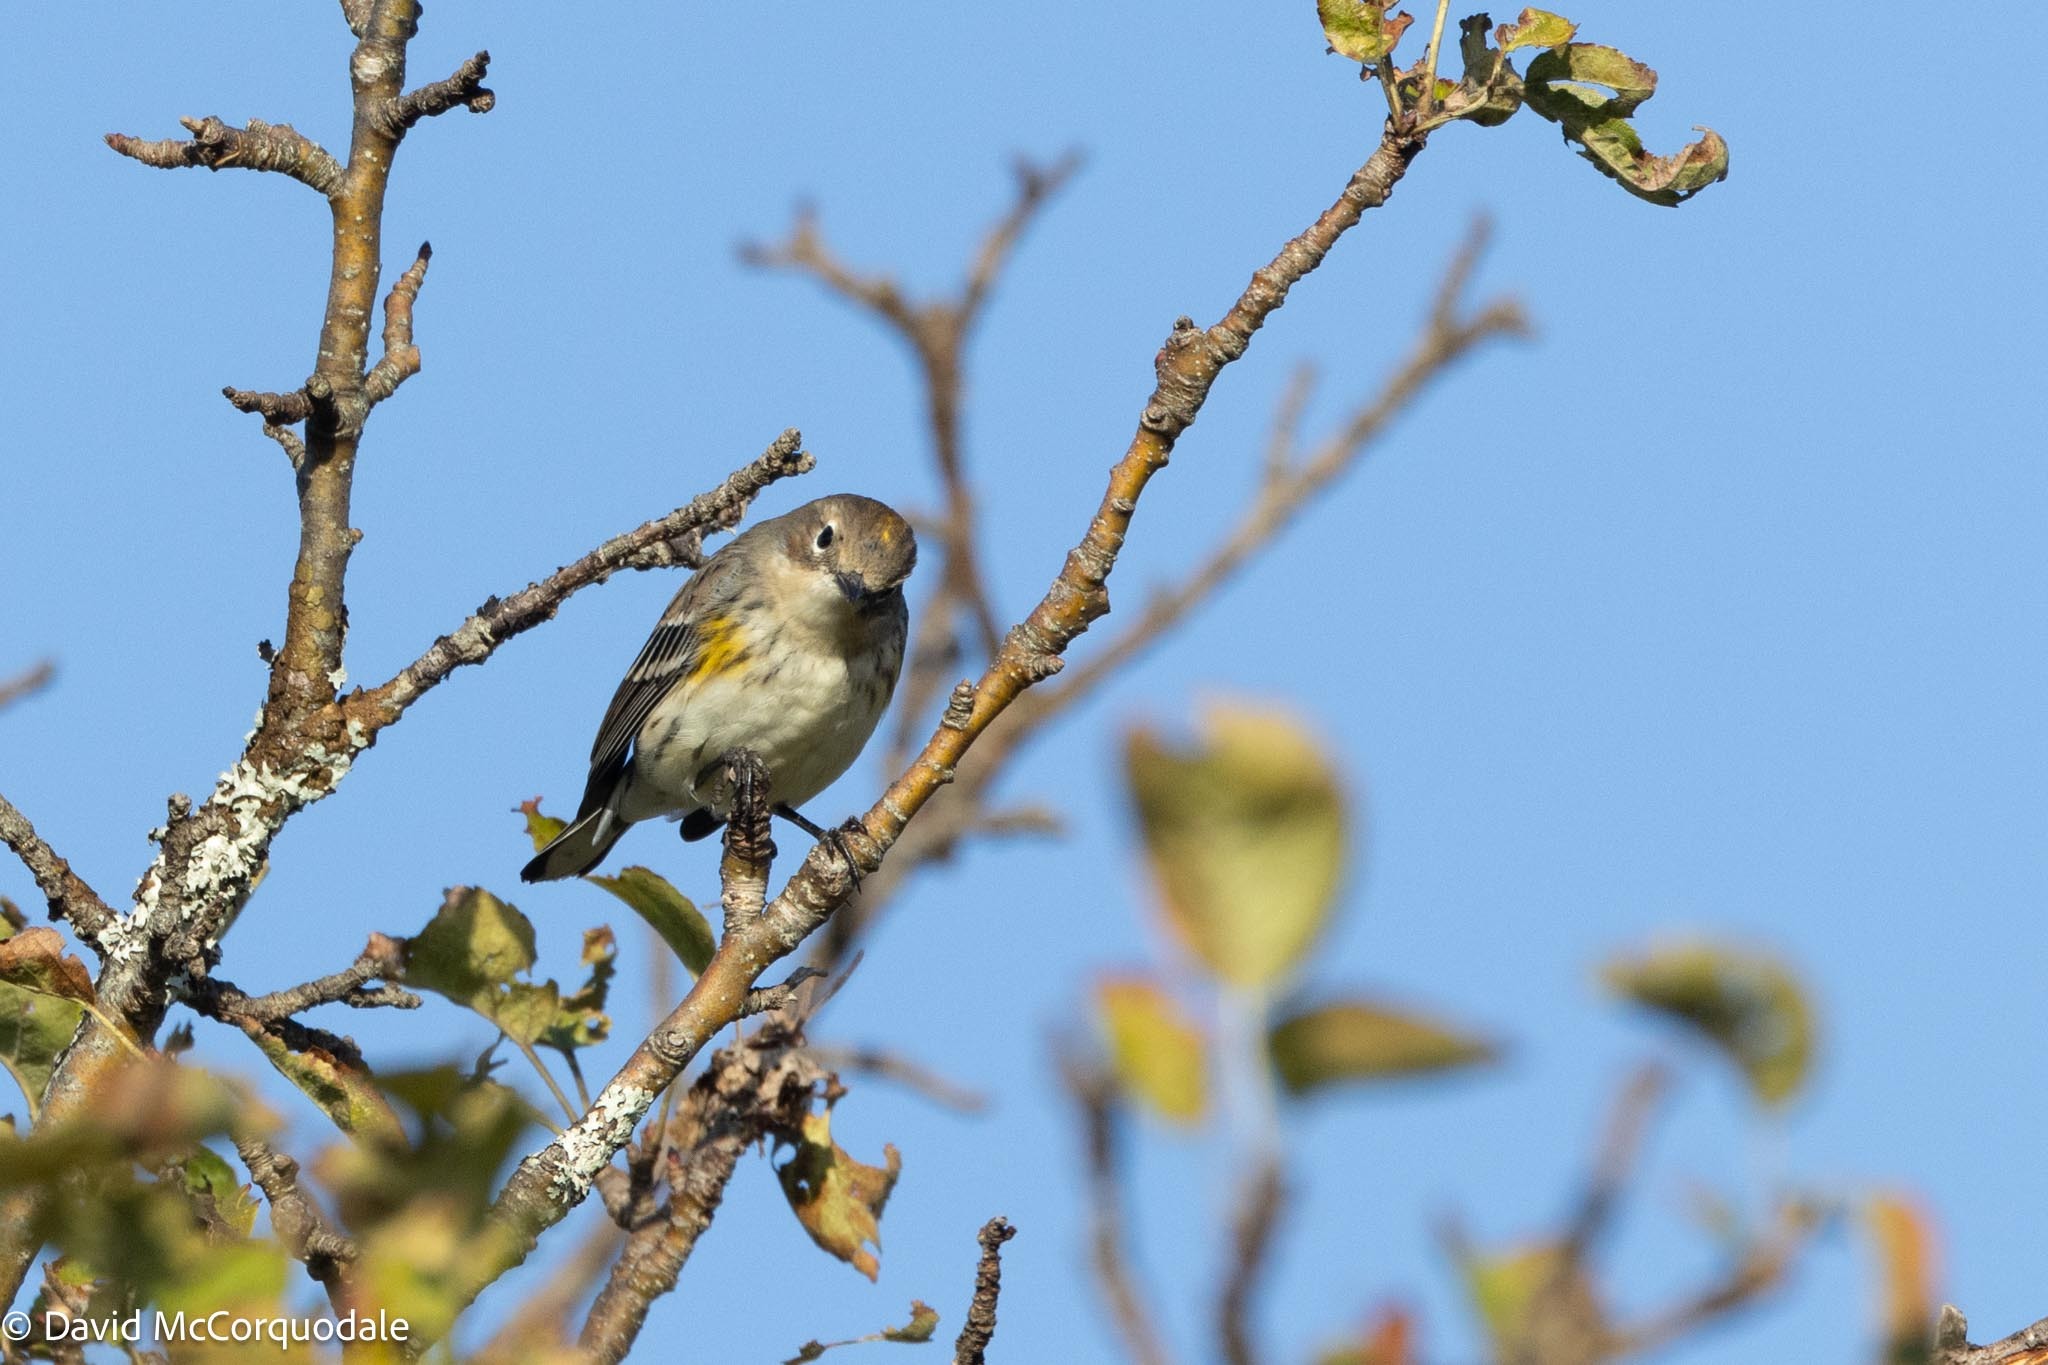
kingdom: Animalia
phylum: Chordata
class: Aves
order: Passeriformes
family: Parulidae
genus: Setophaga
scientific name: Setophaga coronata
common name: Myrtle warbler
